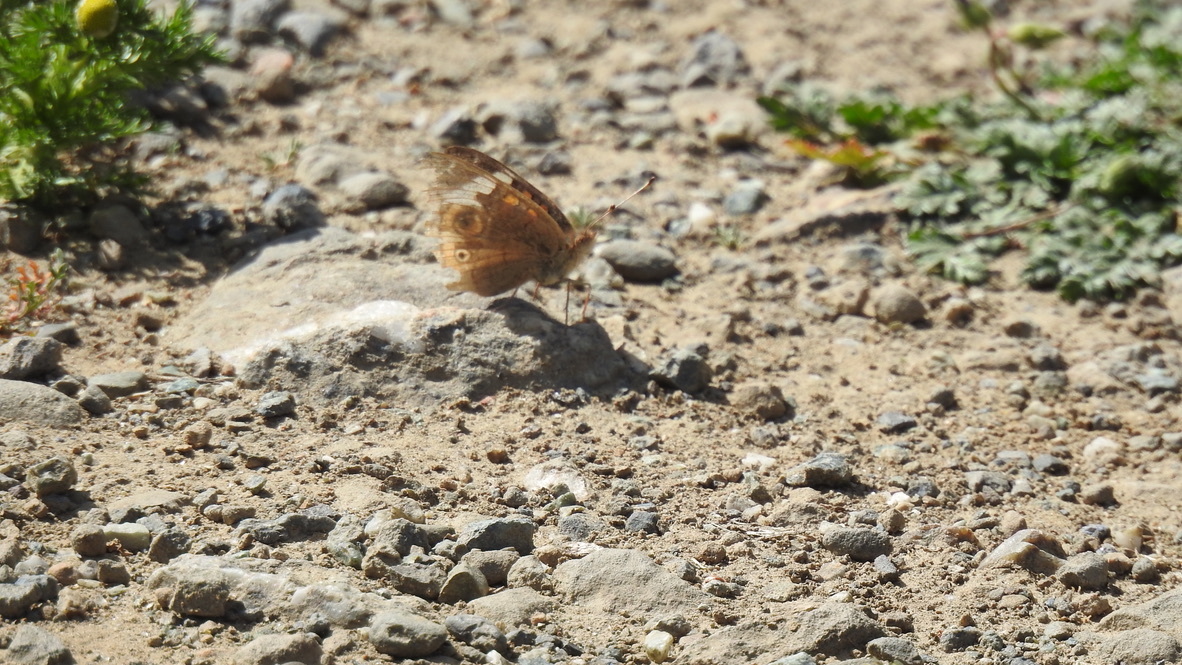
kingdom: Animalia
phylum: Arthropoda
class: Insecta
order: Lepidoptera
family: Nymphalidae
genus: Junonia
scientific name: Junonia grisea
